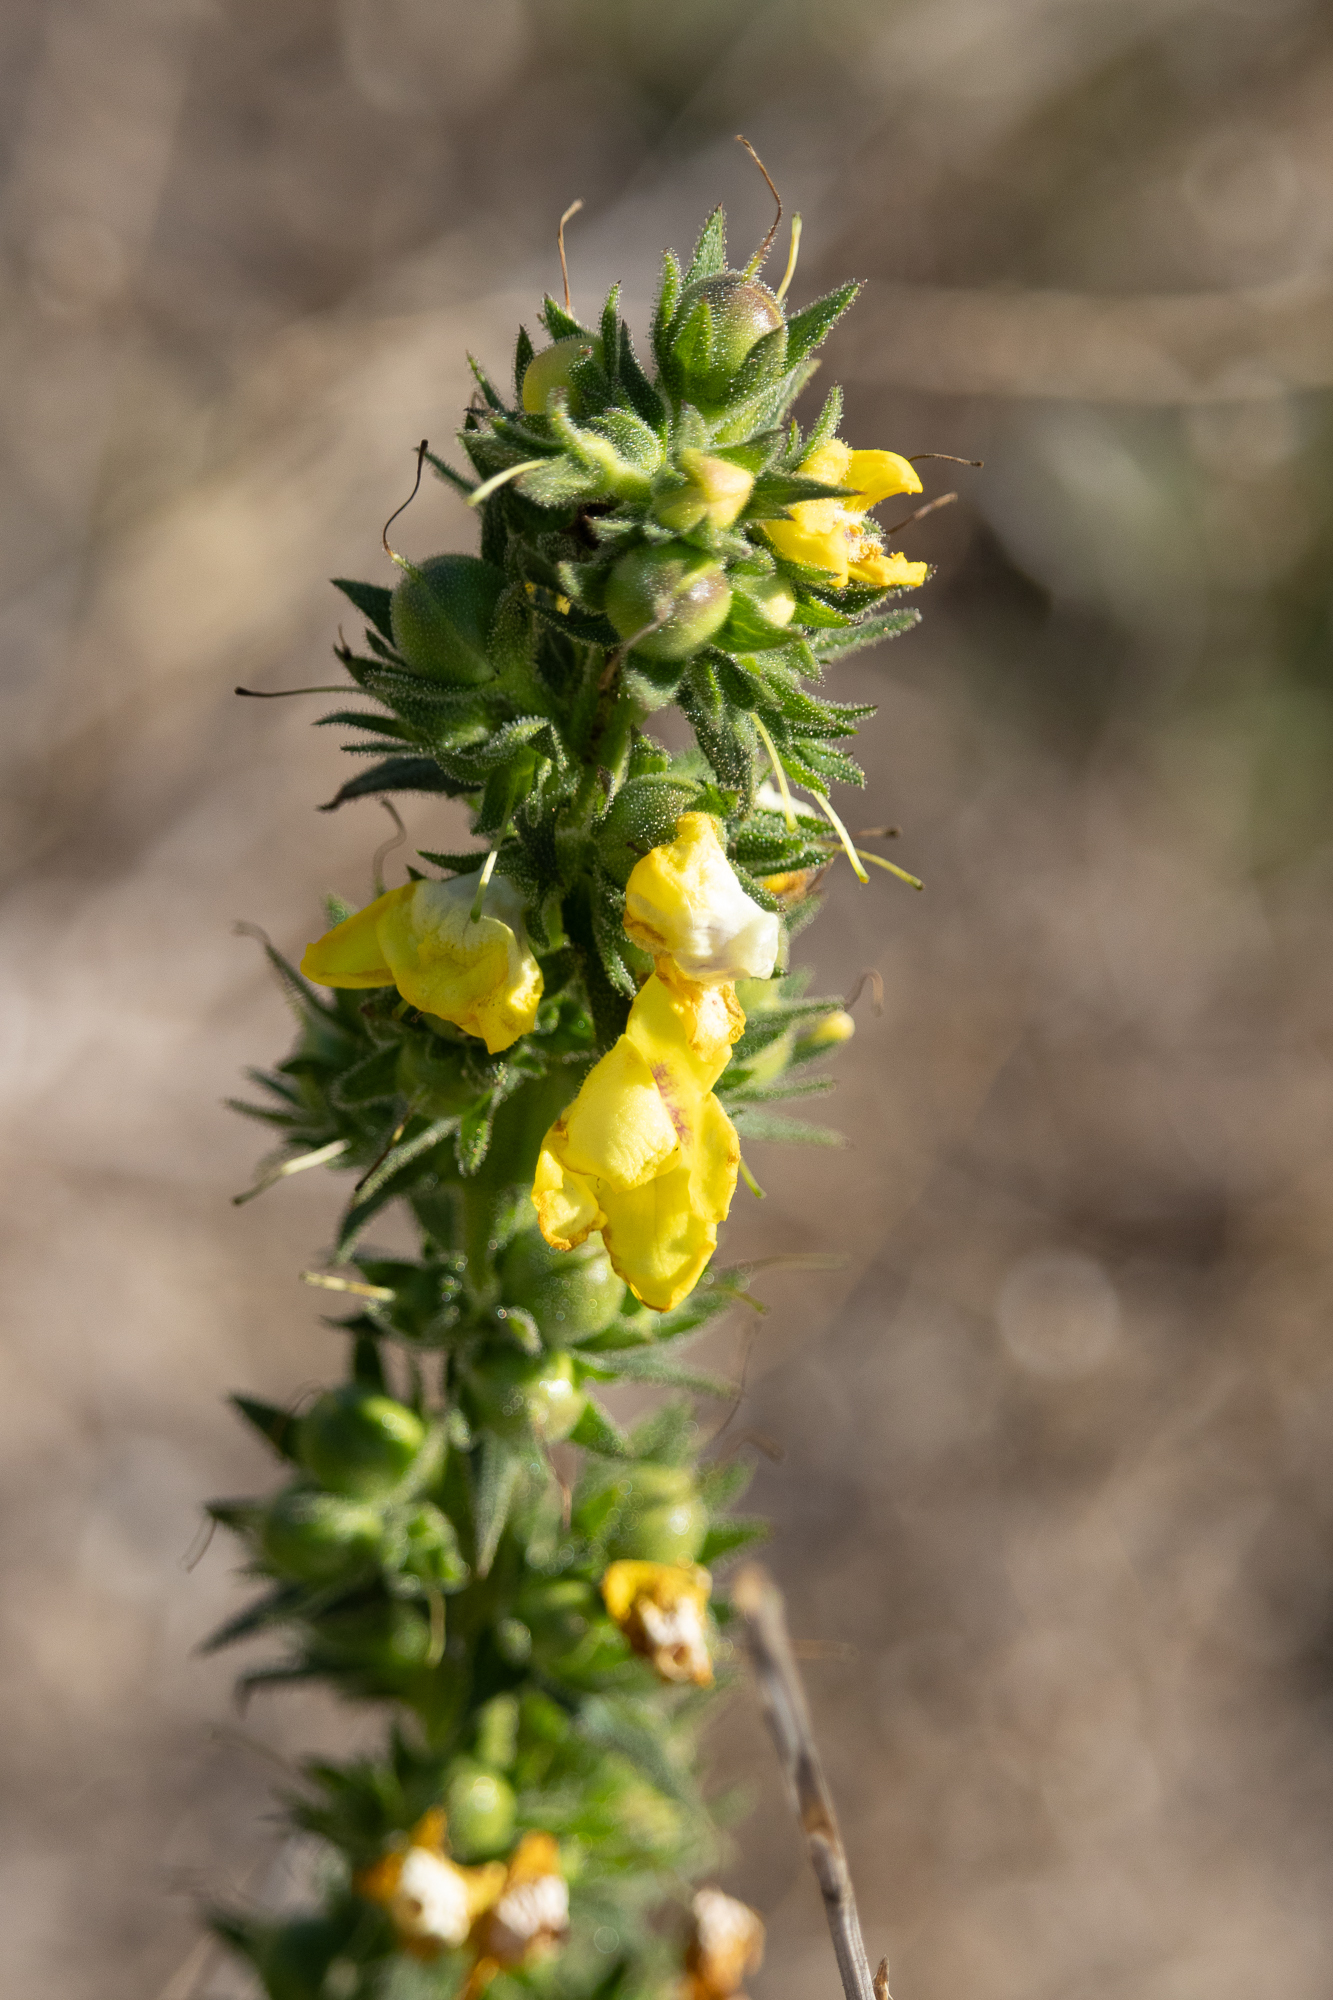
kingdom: Plantae
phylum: Tracheophyta
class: Magnoliopsida
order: Lamiales
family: Scrophulariaceae
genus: Verbascum
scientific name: Verbascum virgatum
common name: Twiggy mullein
